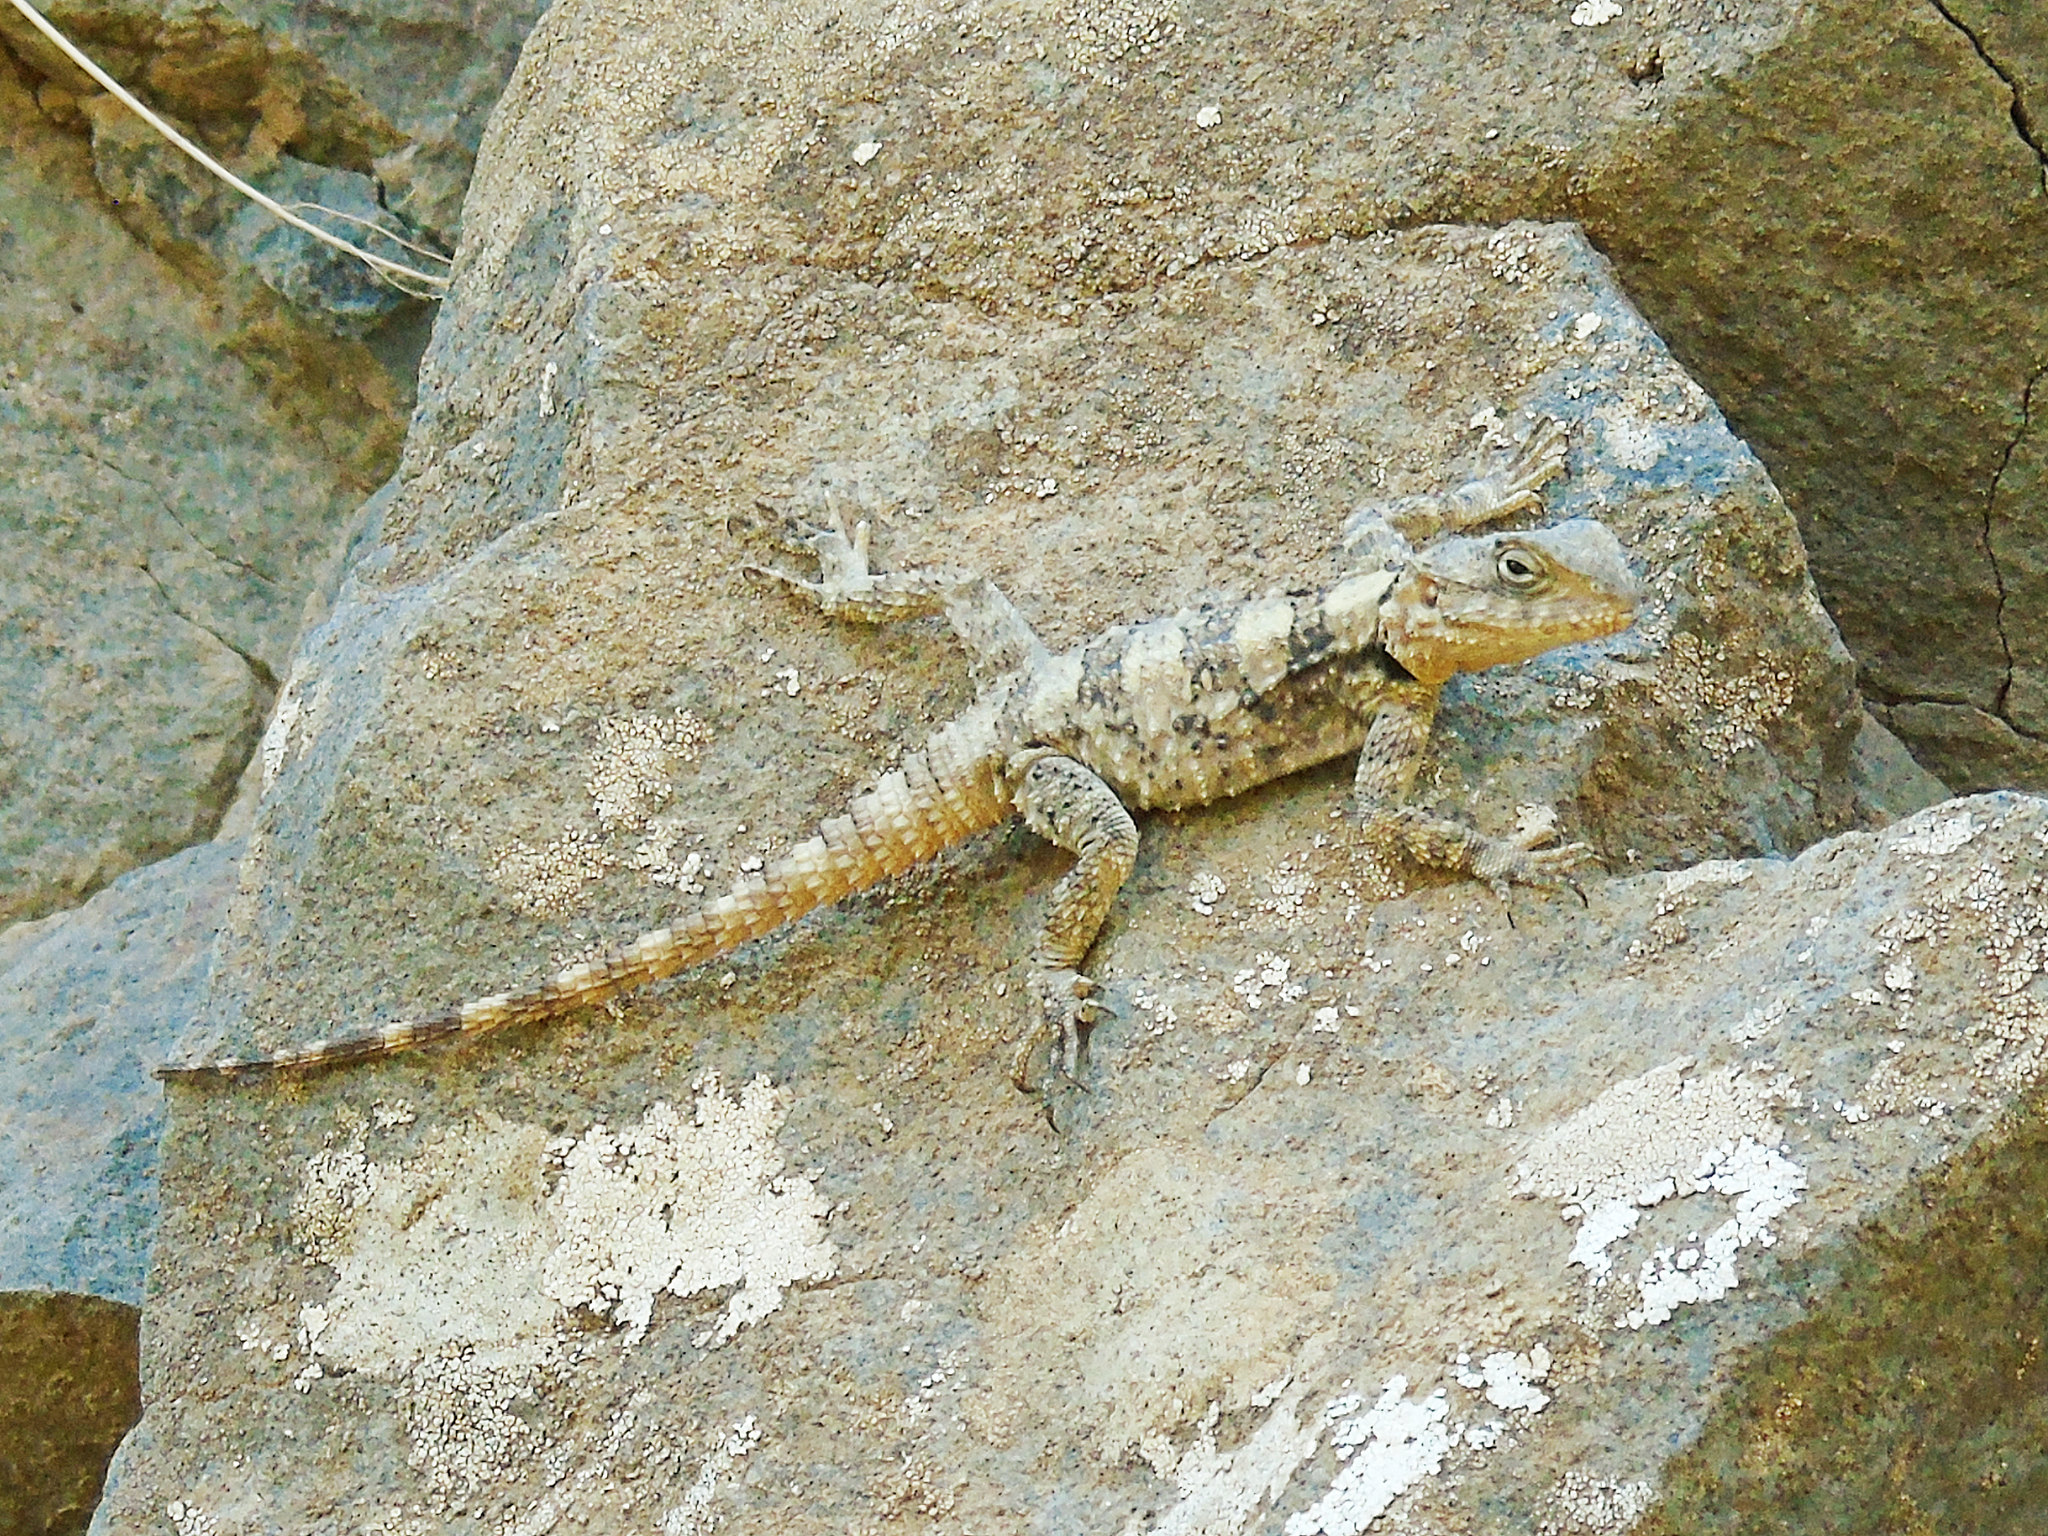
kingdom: Animalia
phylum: Chordata
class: Squamata
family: Agamidae
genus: Stellagama
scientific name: Stellagama stellio
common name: Starred agama
